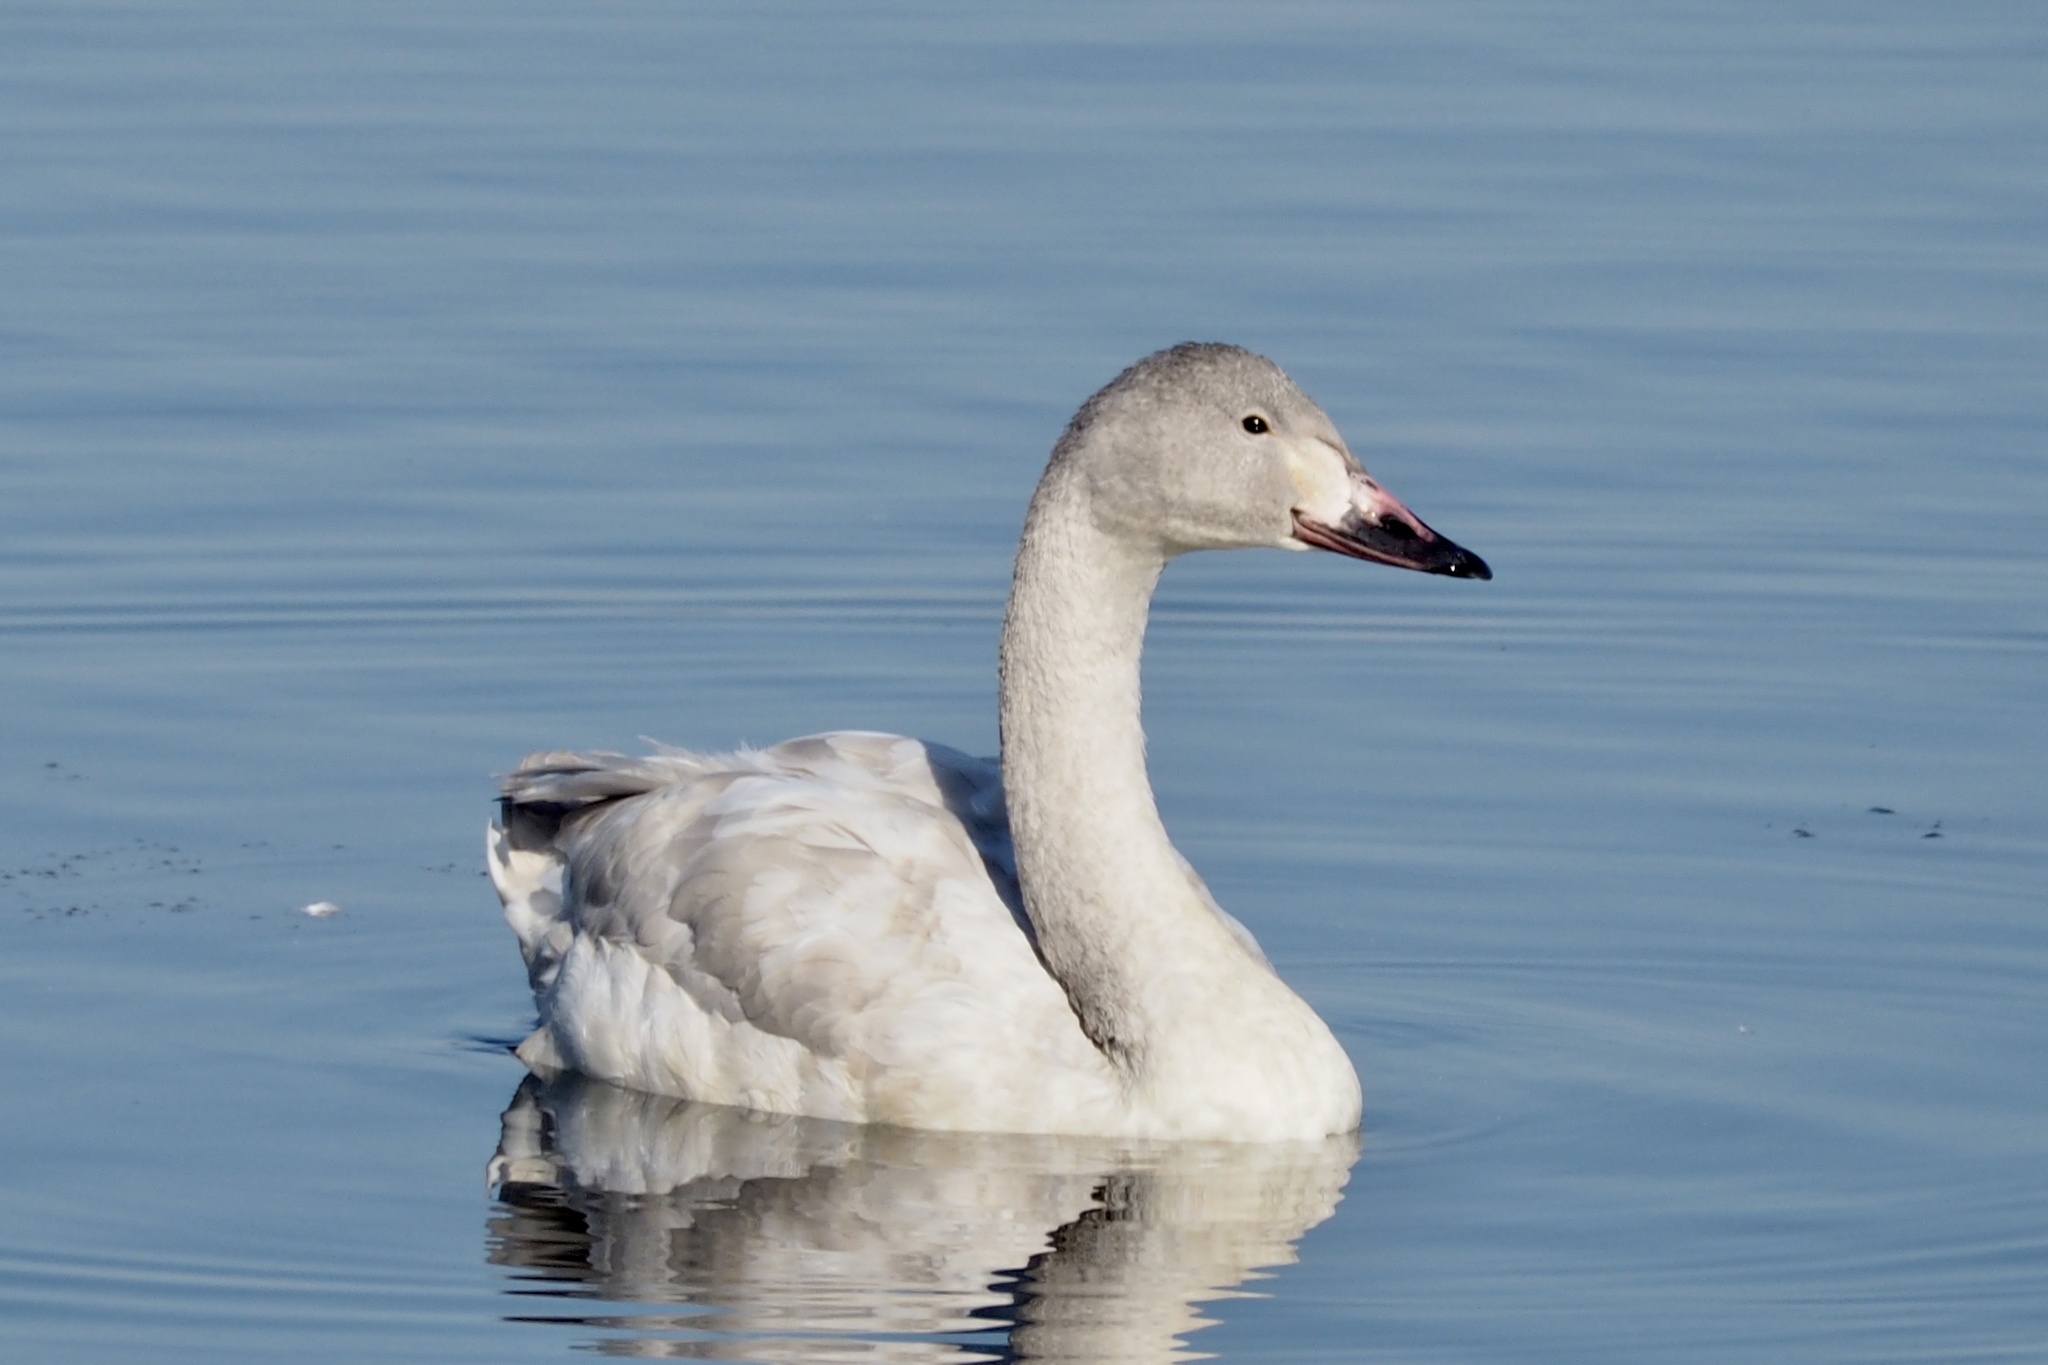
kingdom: Animalia
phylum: Chordata
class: Aves
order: Anseriformes
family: Anatidae
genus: Cygnus
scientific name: Cygnus columbianus
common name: Tundra swan
